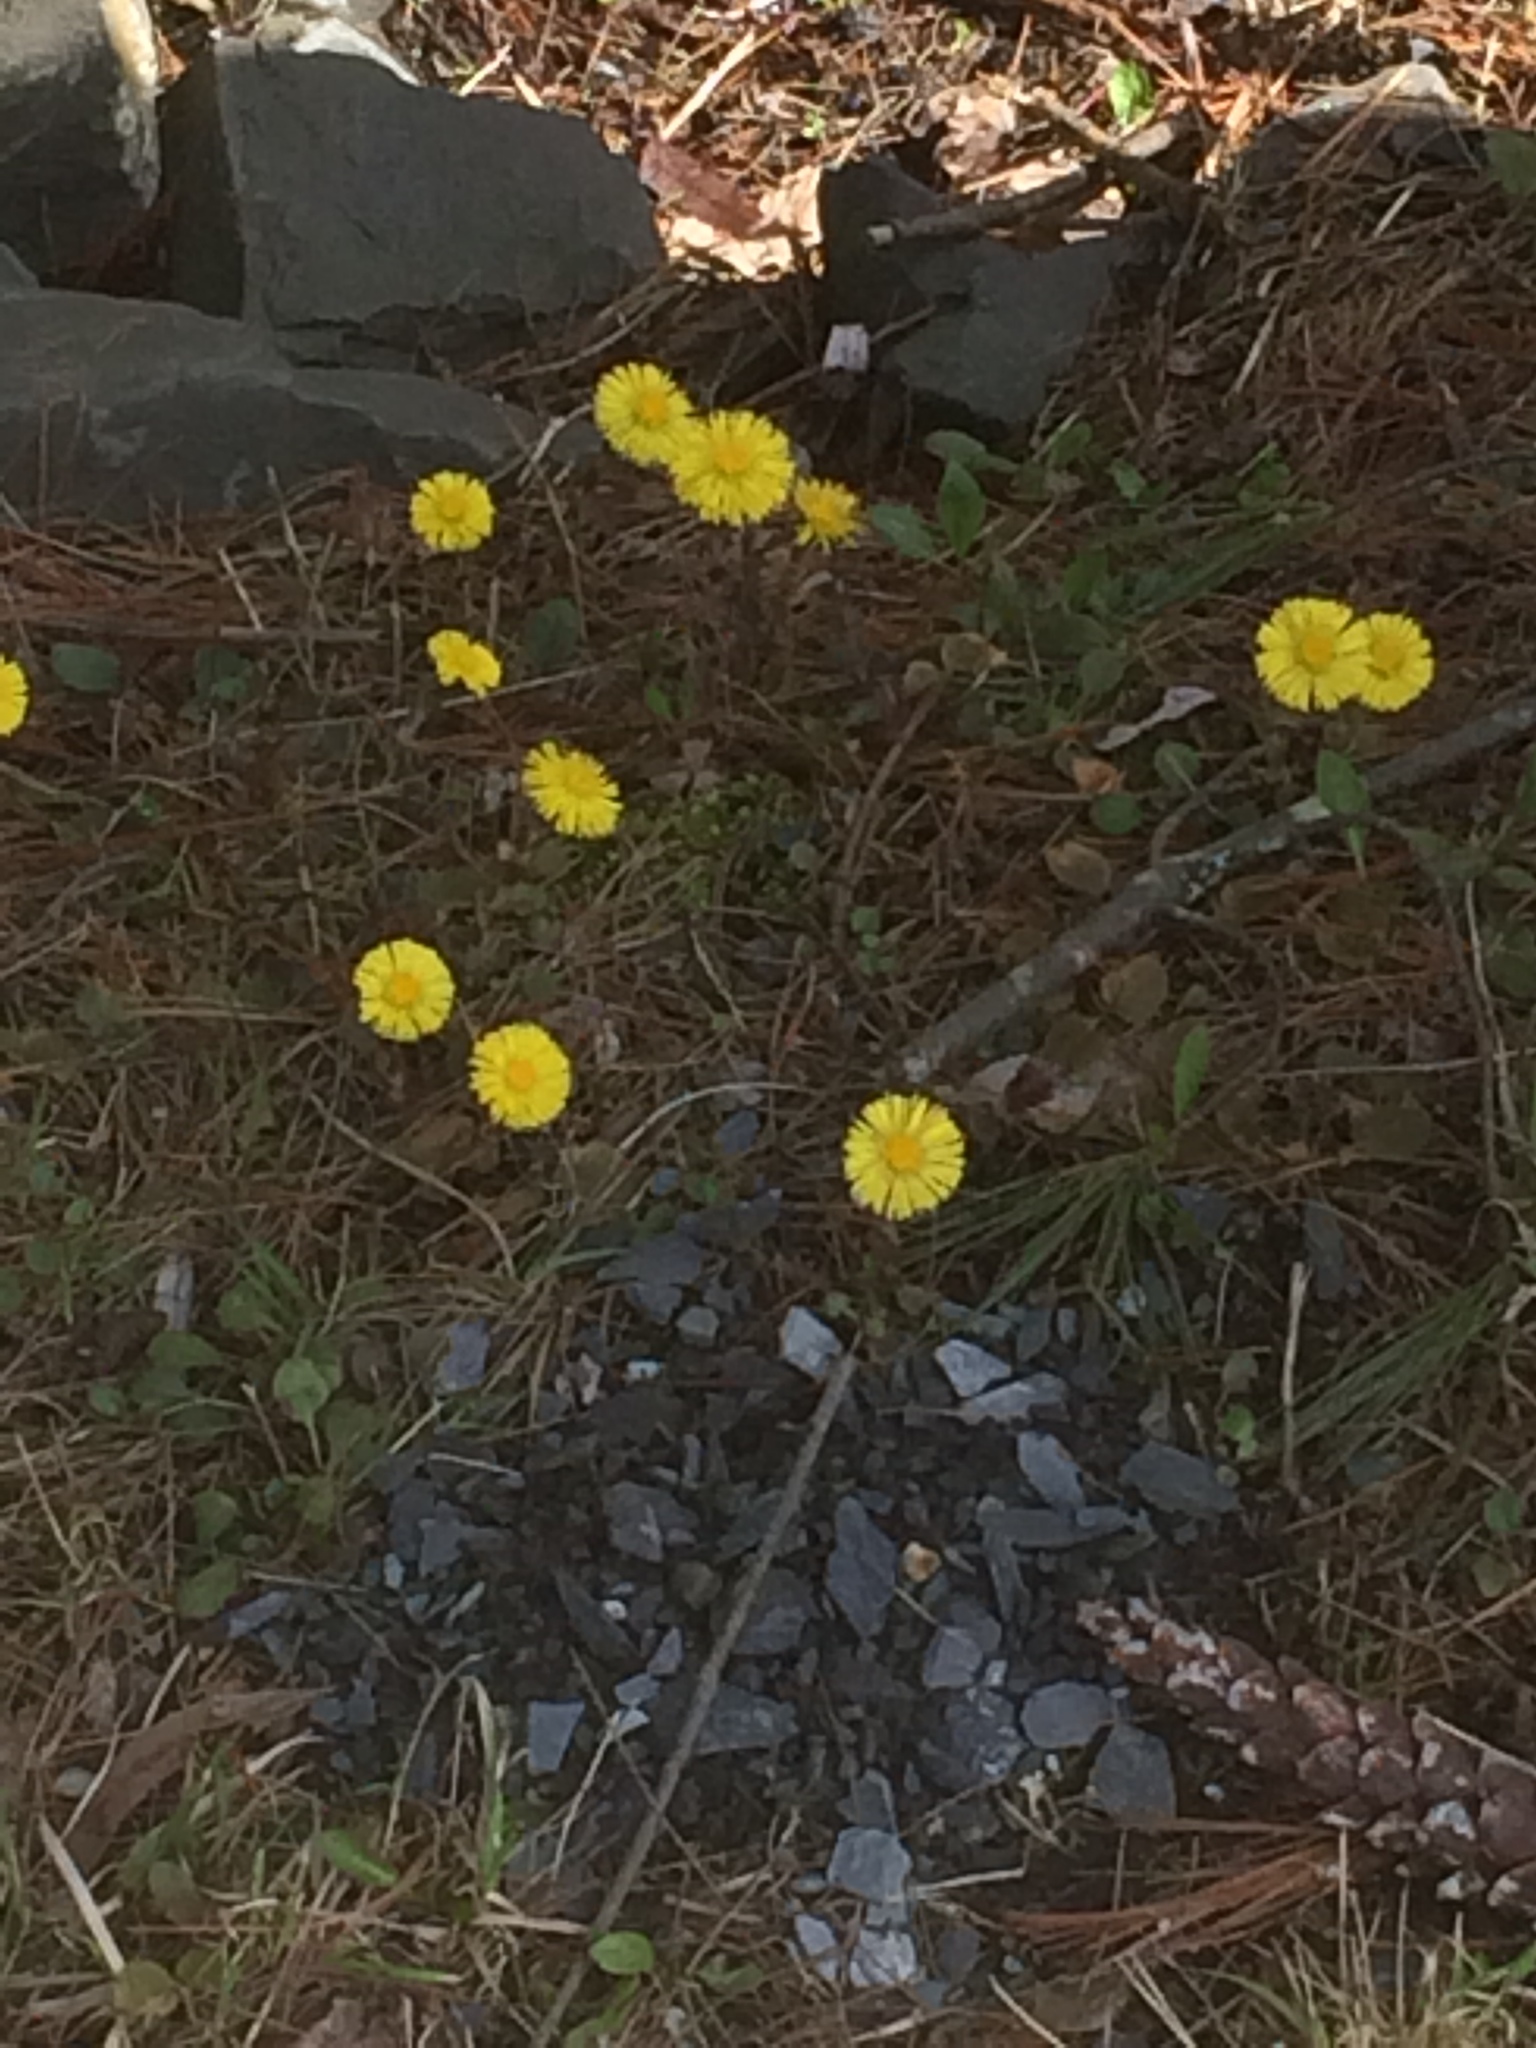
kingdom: Plantae
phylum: Tracheophyta
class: Magnoliopsida
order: Asterales
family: Asteraceae
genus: Tussilago
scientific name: Tussilago farfara
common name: Coltsfoot
